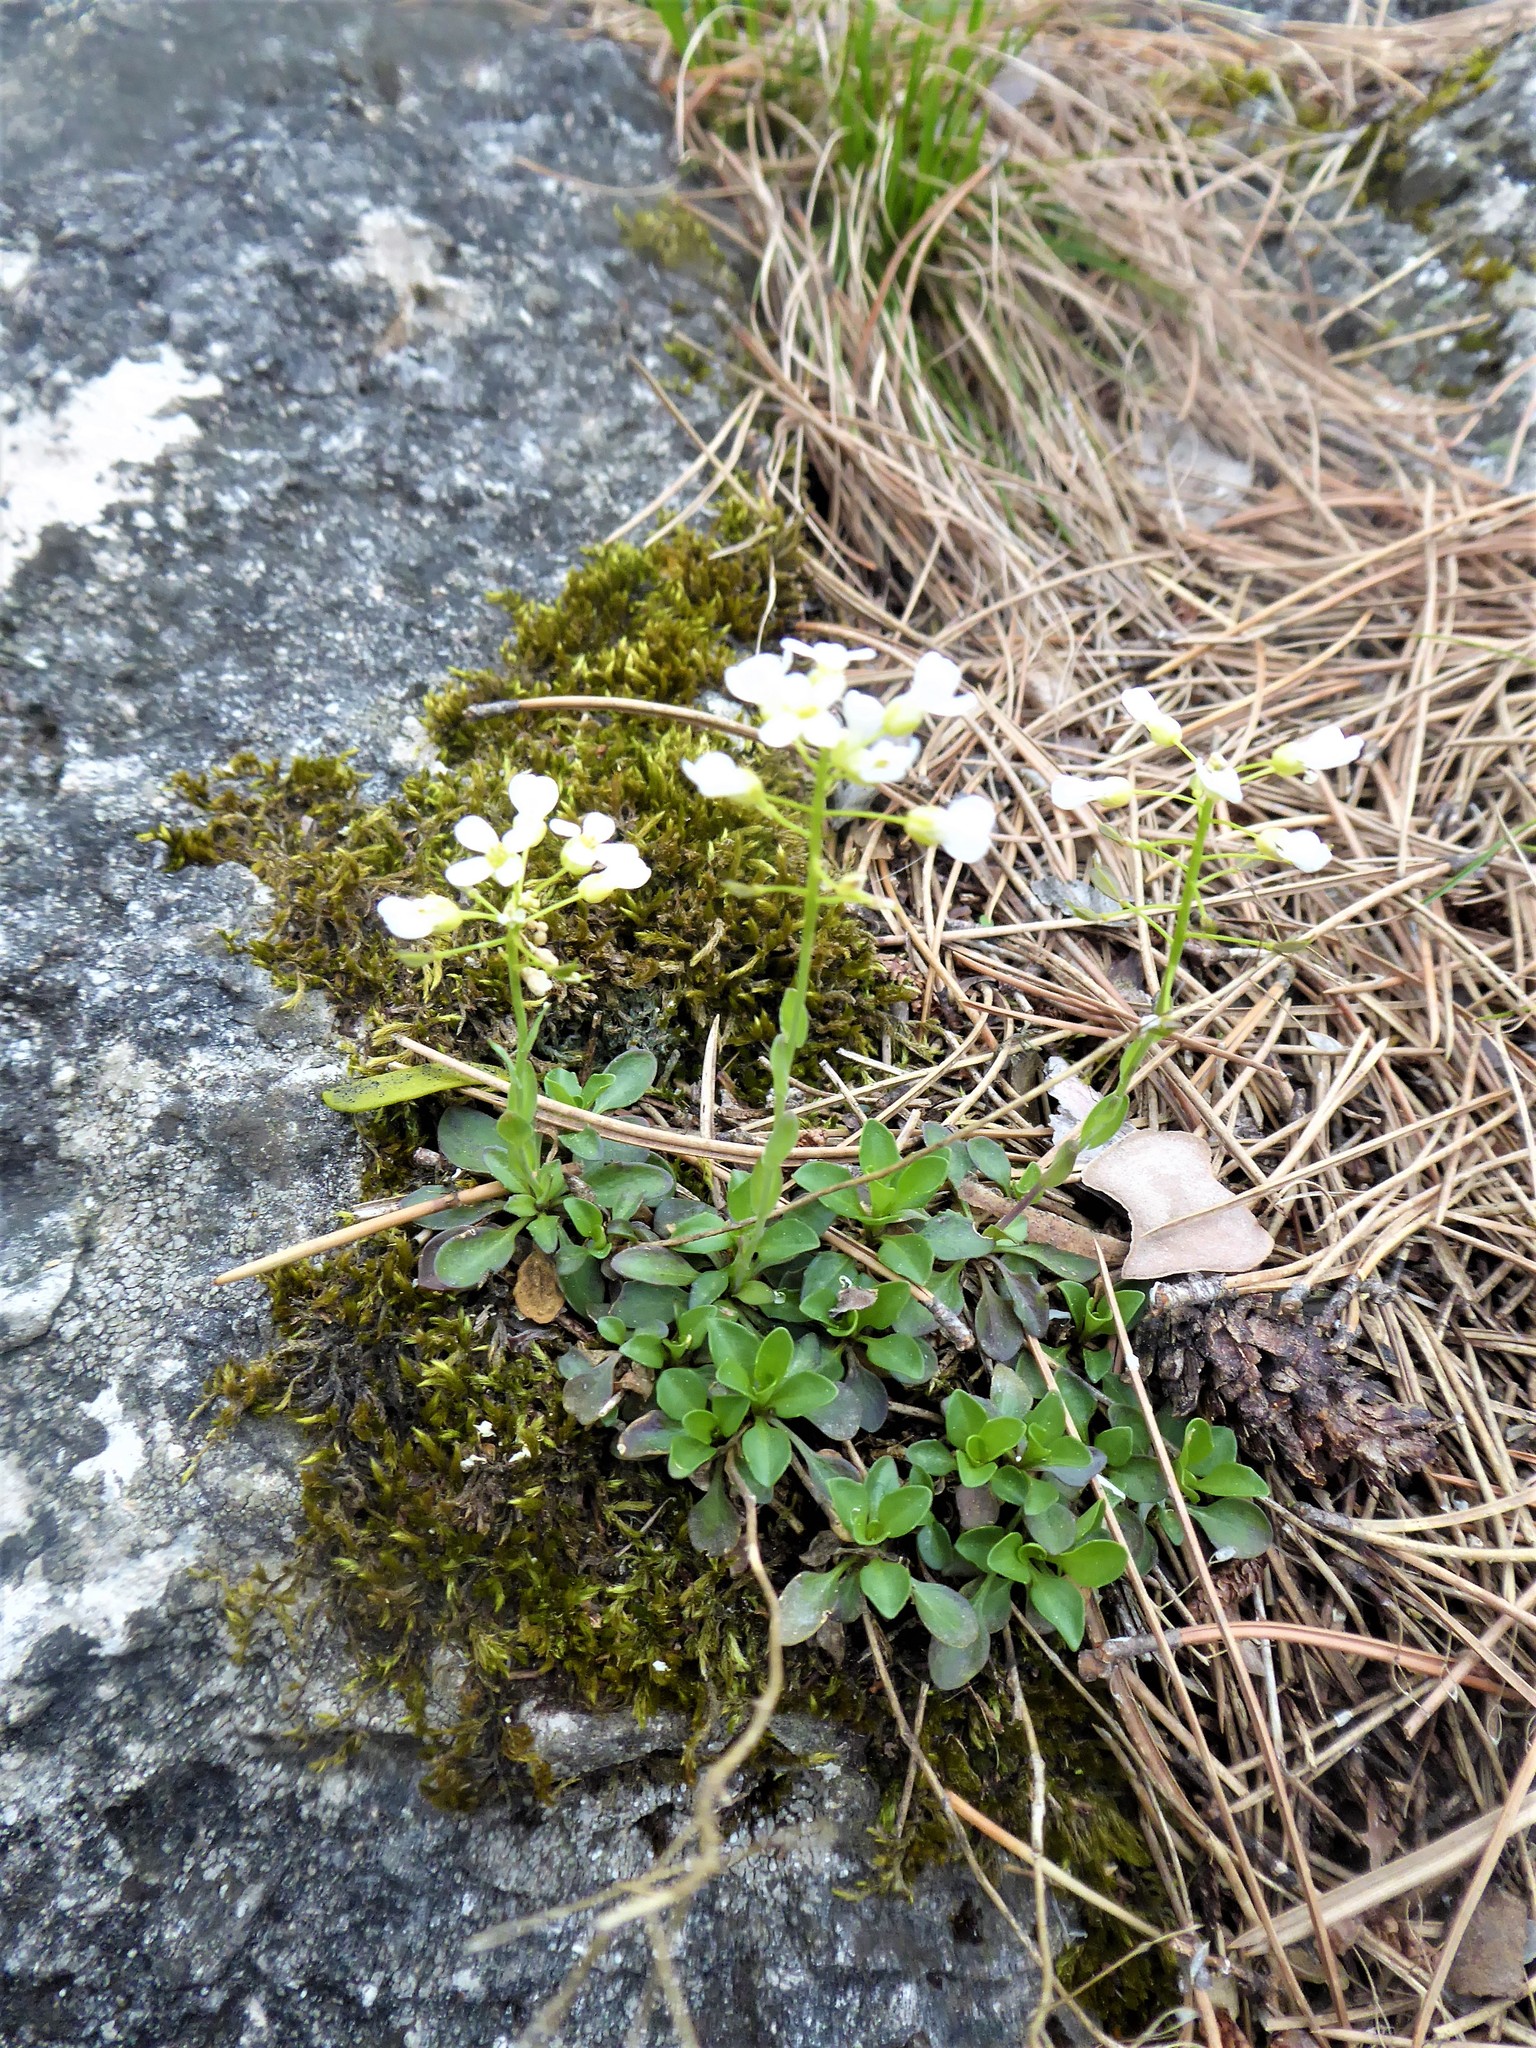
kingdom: Plantae
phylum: Tracheophyta
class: Magnoliopsida
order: Brassicales
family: Brassicaceae
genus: Noccaea
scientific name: Noccaea montana
